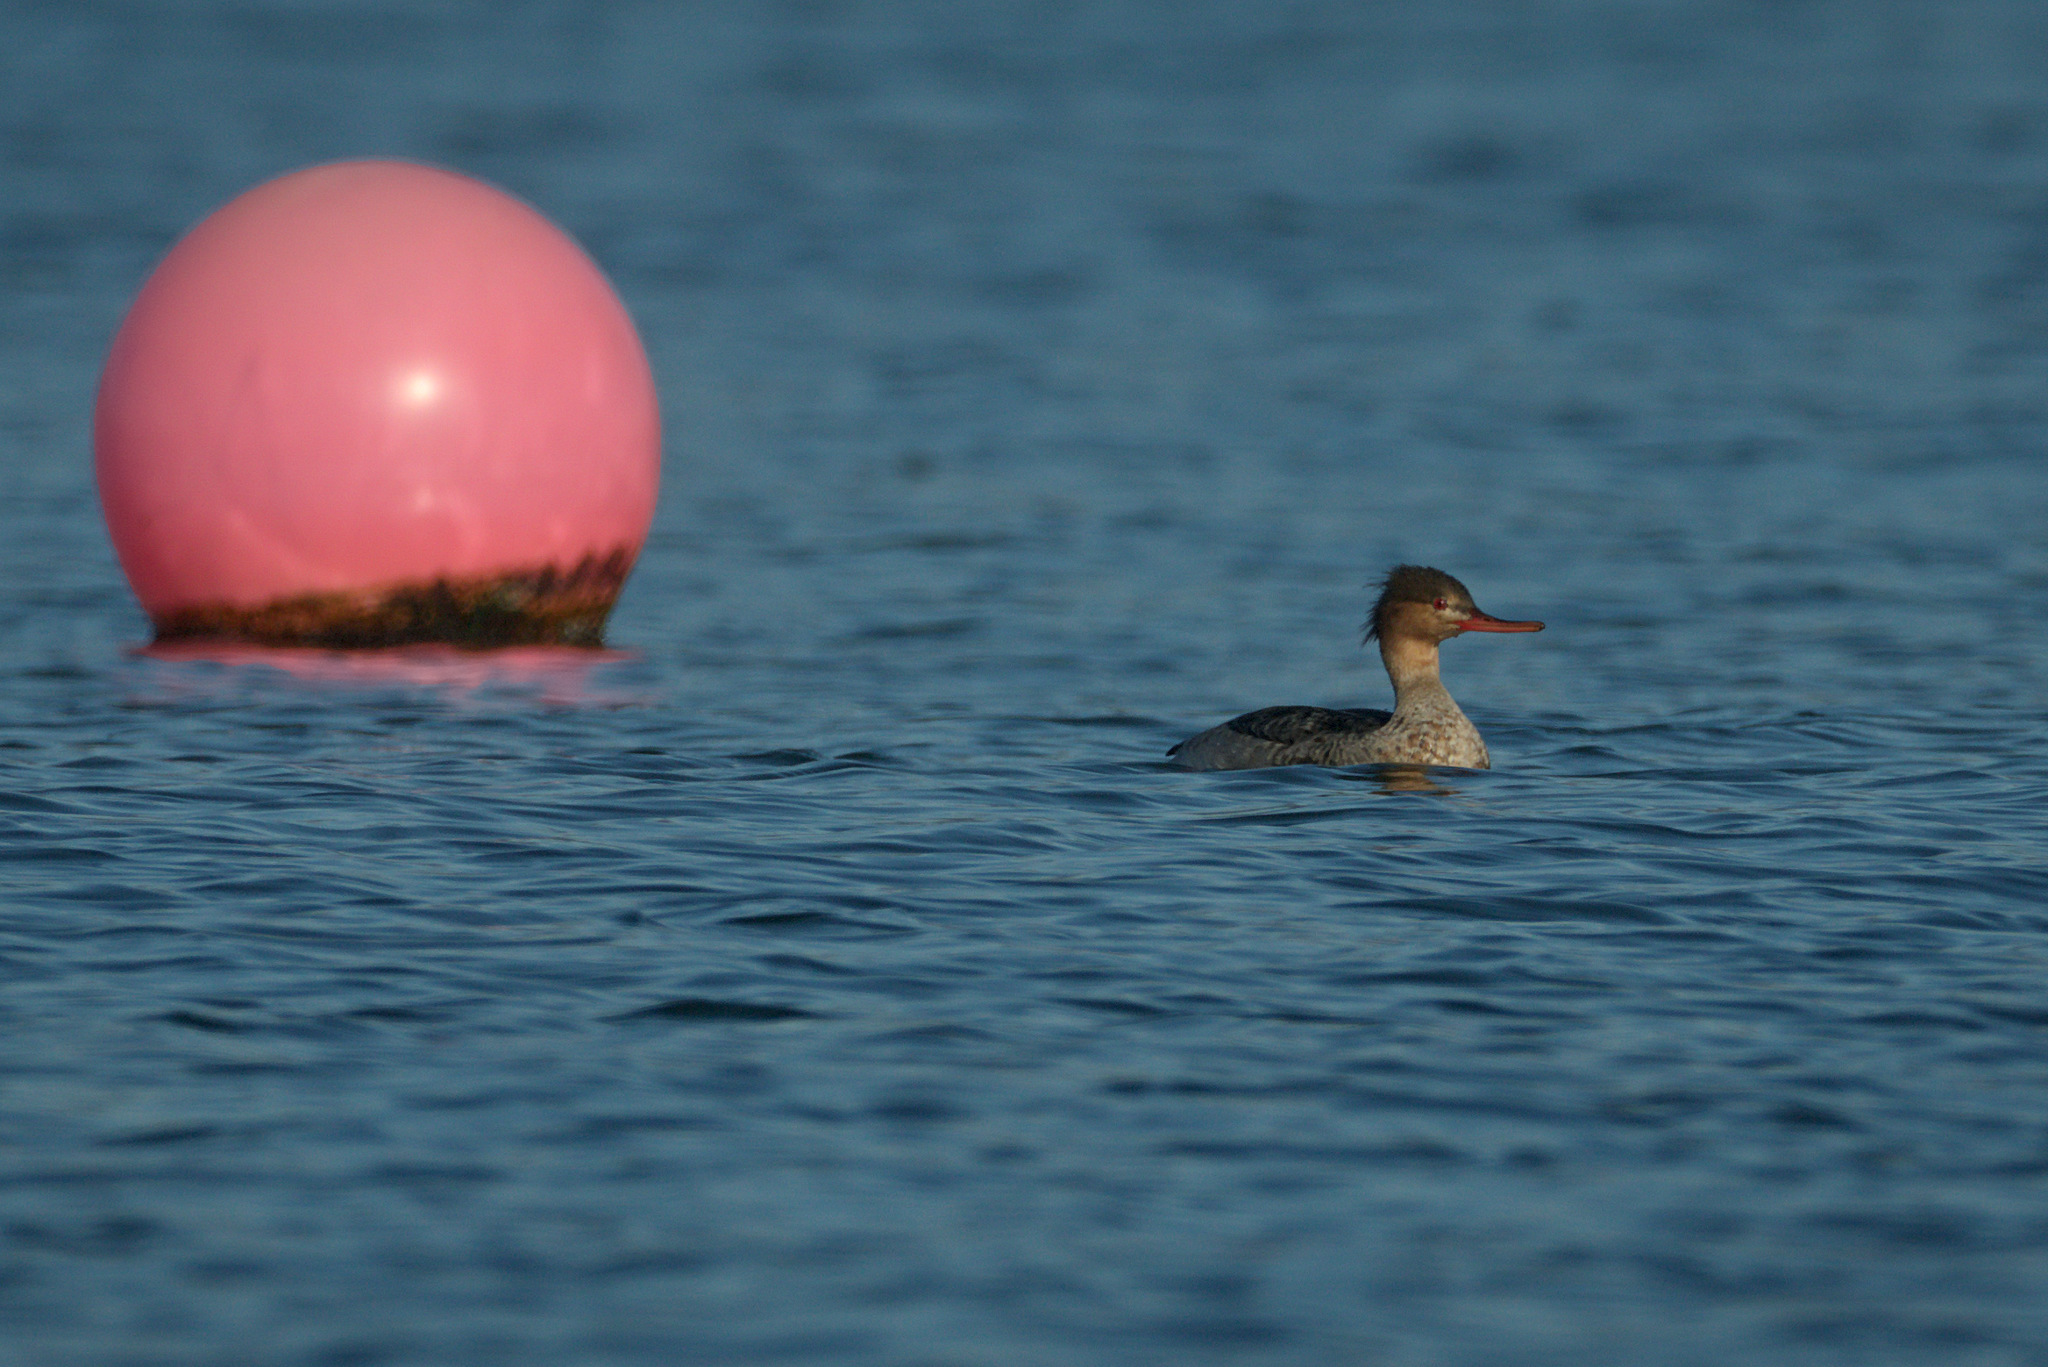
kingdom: Animalia
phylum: Chordata
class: Aves
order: Anseriformes
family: Anatidae
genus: Mergus
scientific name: Mergus serrator
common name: Red-breasted merganser
